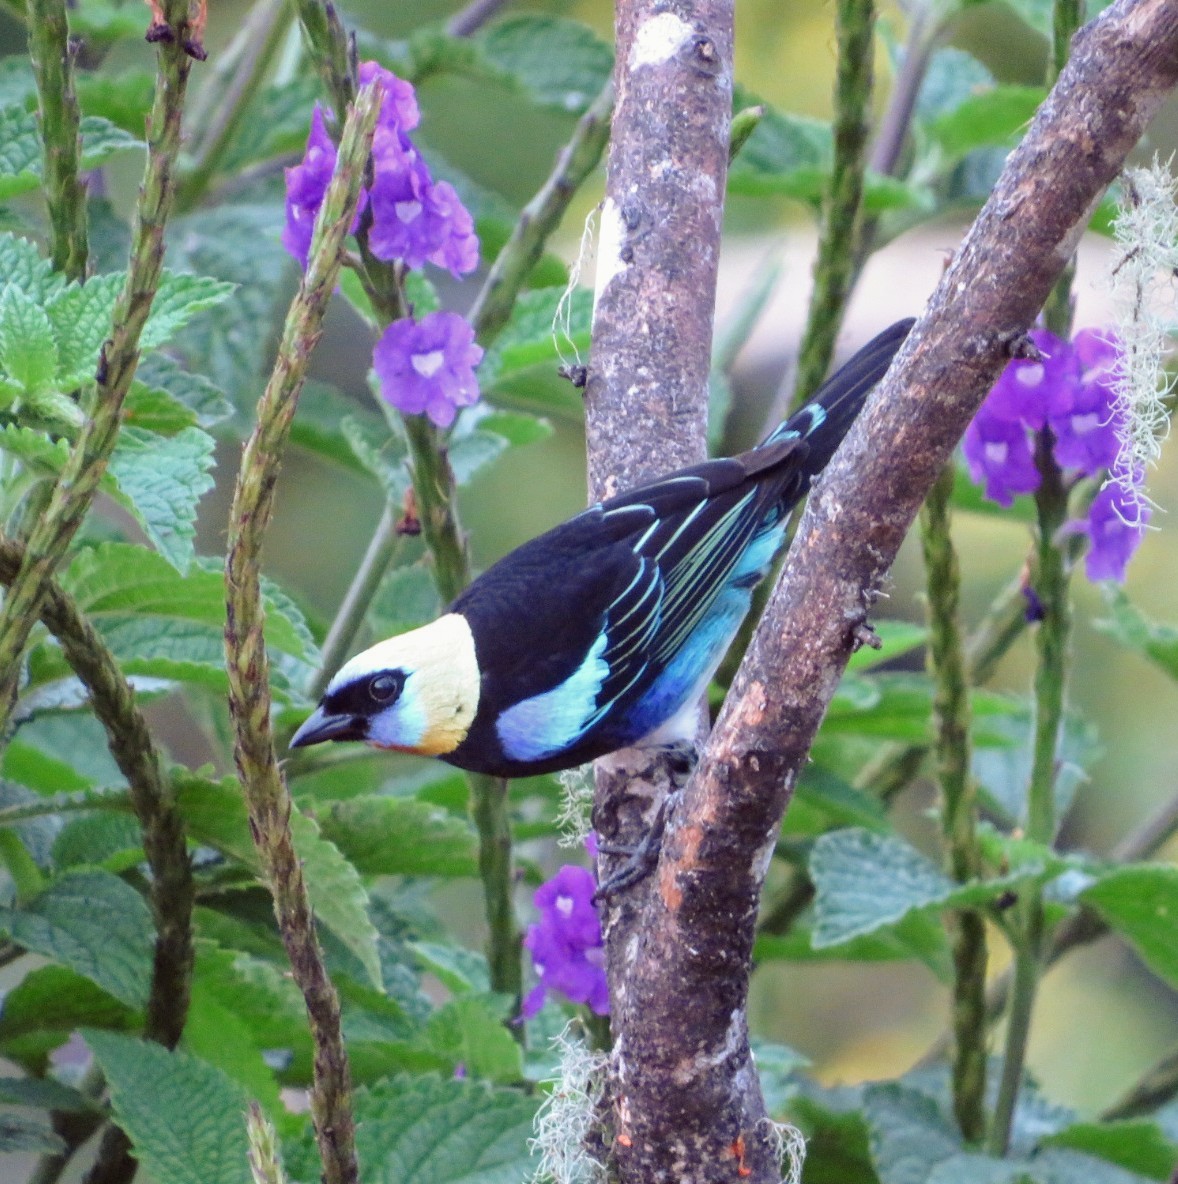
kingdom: Animalia
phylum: Chordata
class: Aves
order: Passeriformes
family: Thraupidae
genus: Stilpnia
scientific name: Stilpnia larvata
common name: Golden-hooded tanager
